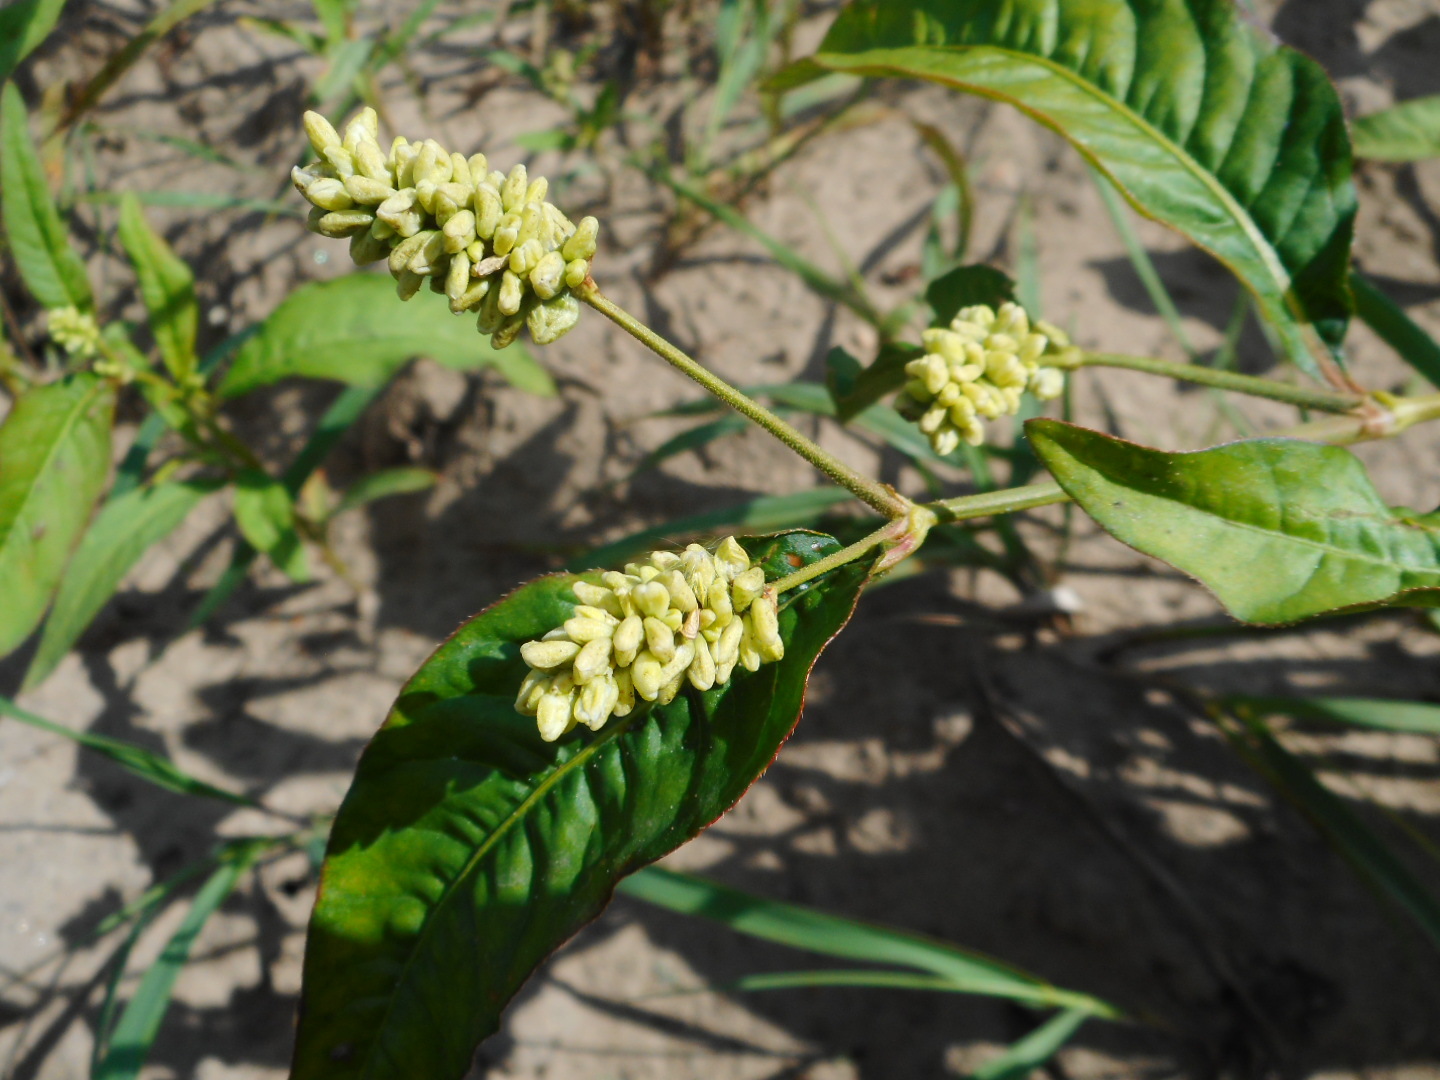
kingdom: Plantae
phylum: Tracheophyta
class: Magnoliopsida
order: Caryophyllales
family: Polygonaceae
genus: Persicaria
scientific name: Persicaria lapathifolia
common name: Curlytop knotweed
